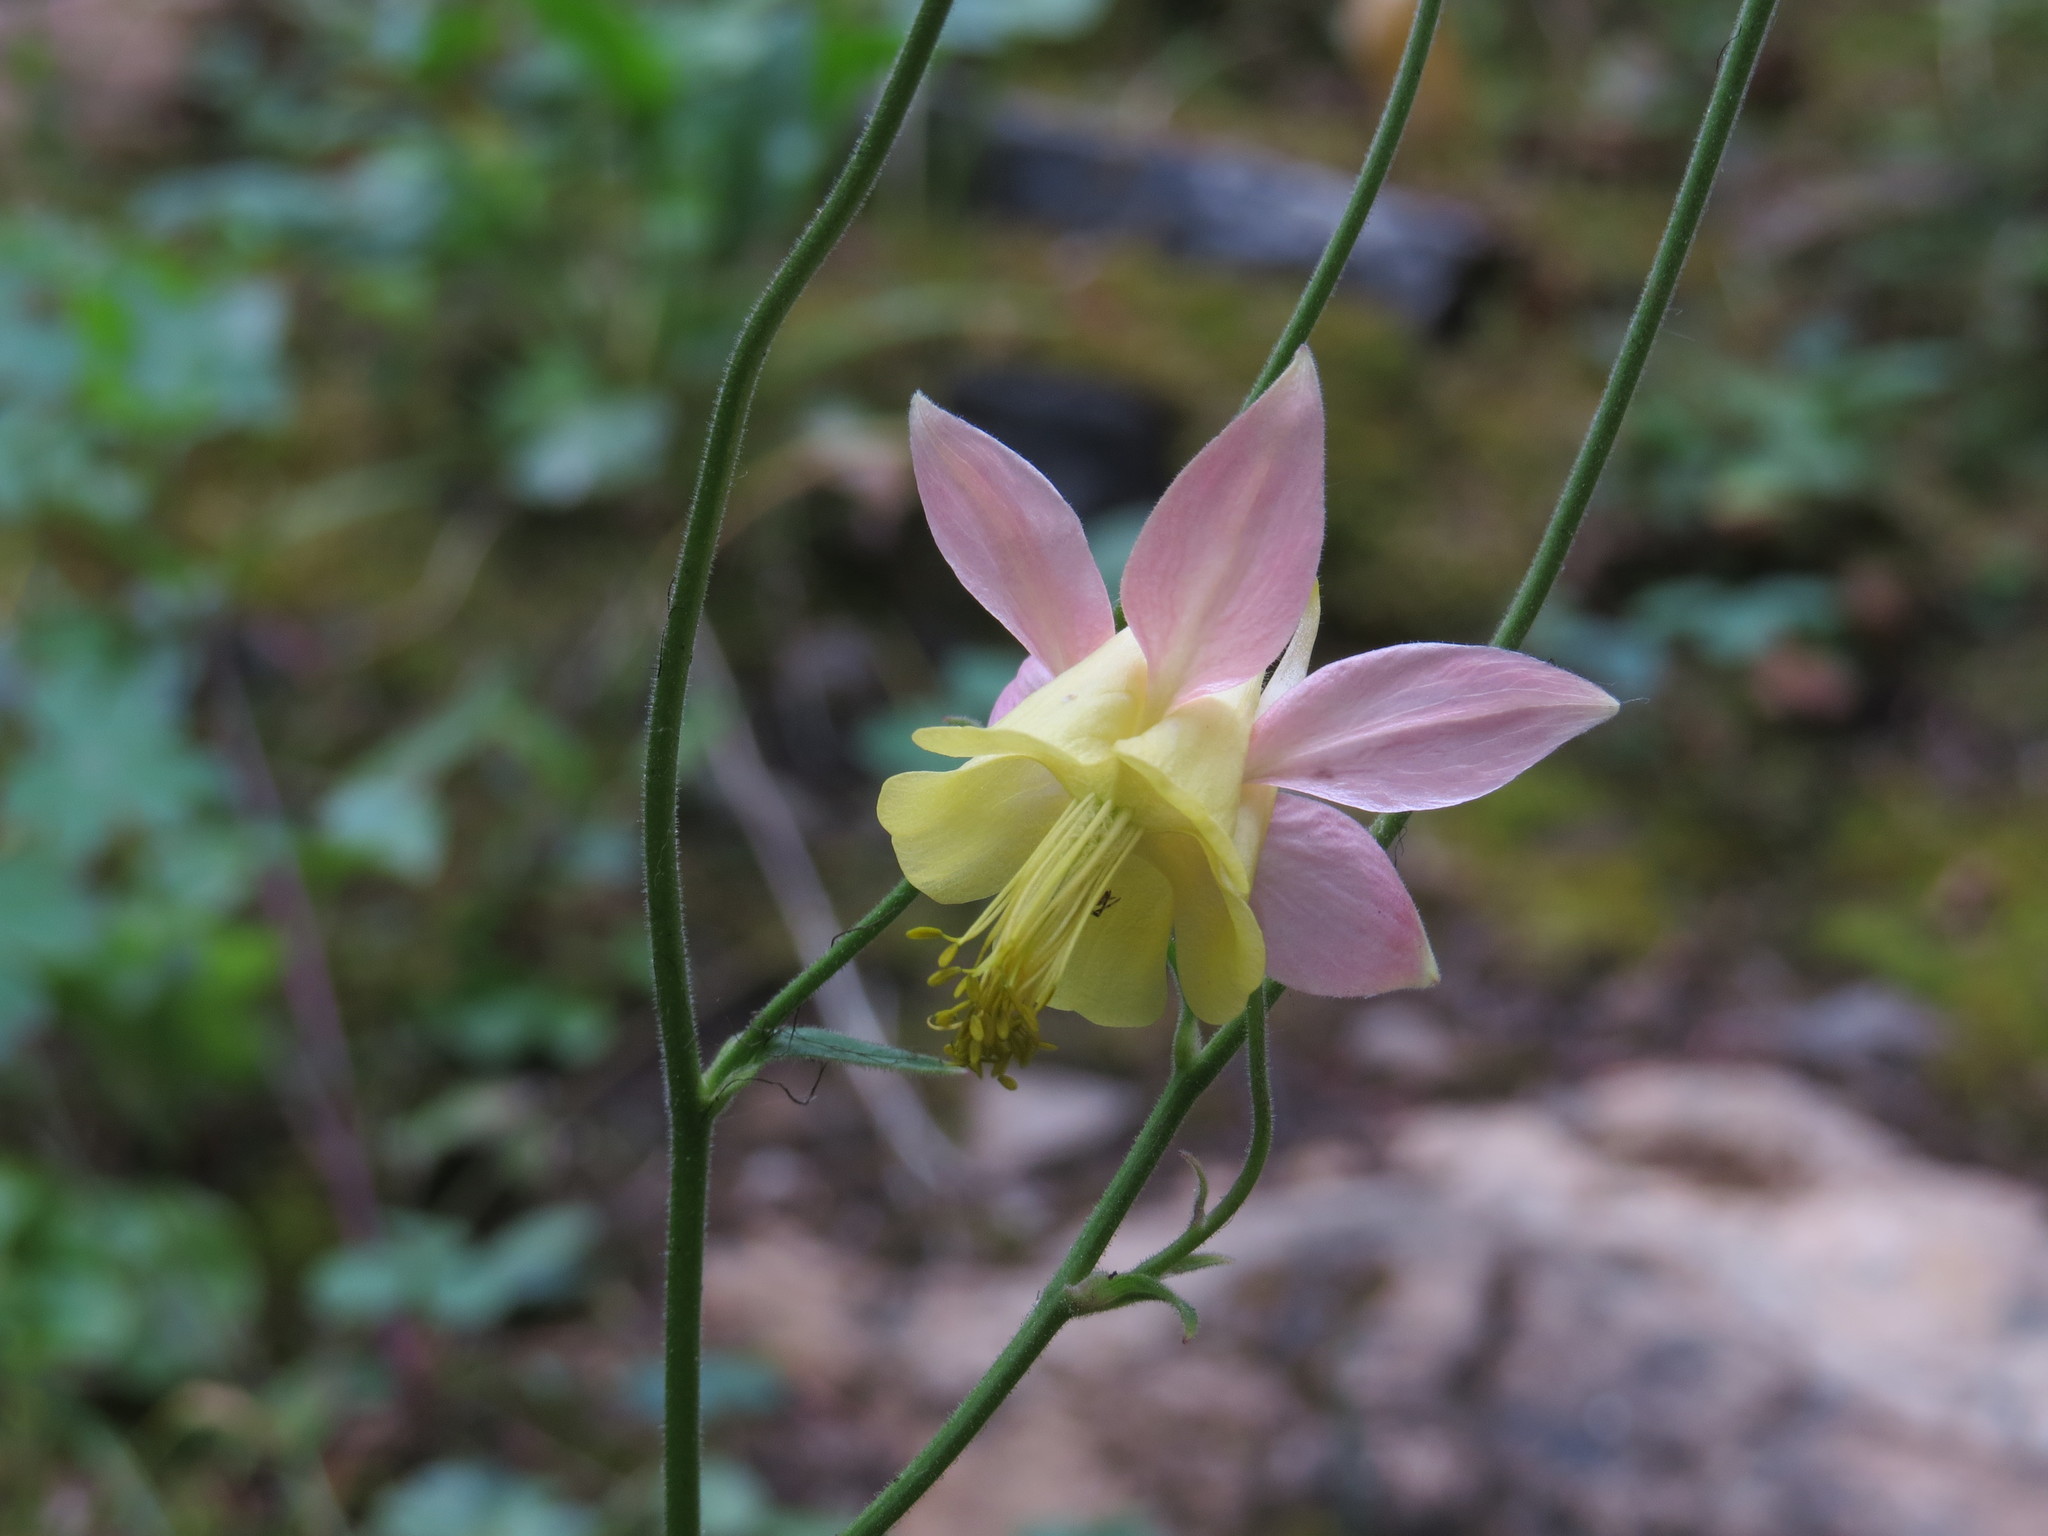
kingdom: Plantae
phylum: Tracheophyta
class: Magnoliopsida
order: Ranunculales
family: Ranunculaceae
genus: Aquilegia
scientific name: Aquilegia miniana
